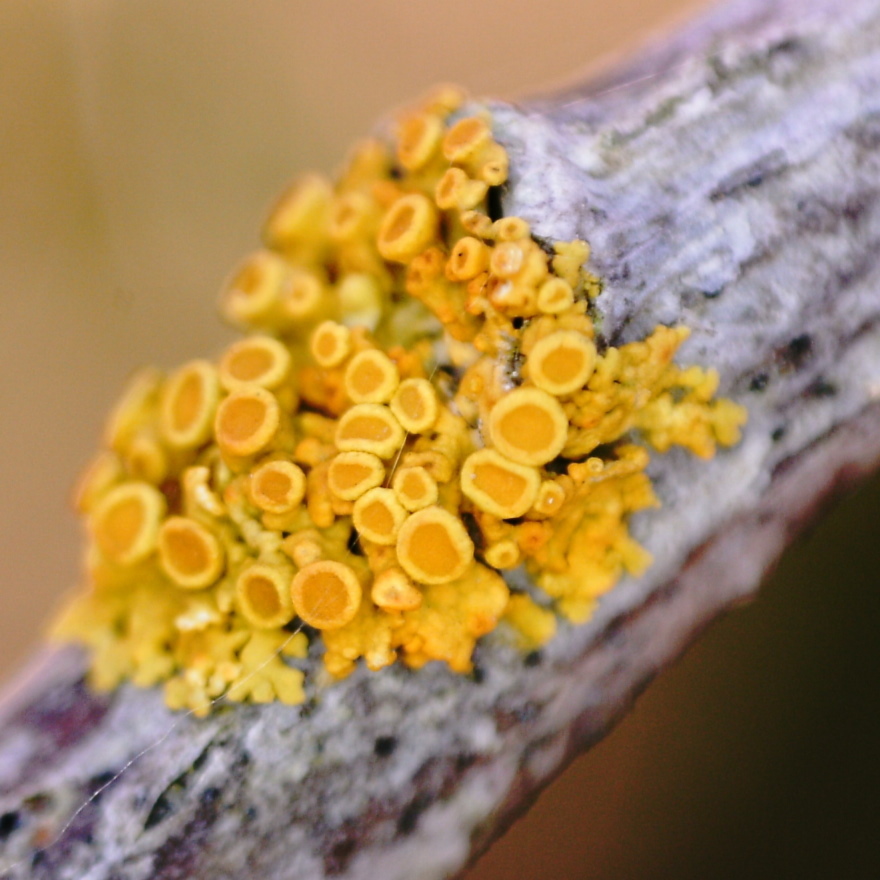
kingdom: Fungi
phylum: Ascomycota
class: Lecanoromycetes
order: Teloschistales
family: Teloschistaceae
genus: Polycauliona
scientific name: Polycauliona polycarpa
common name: Pin-cushion sunburst lichen
